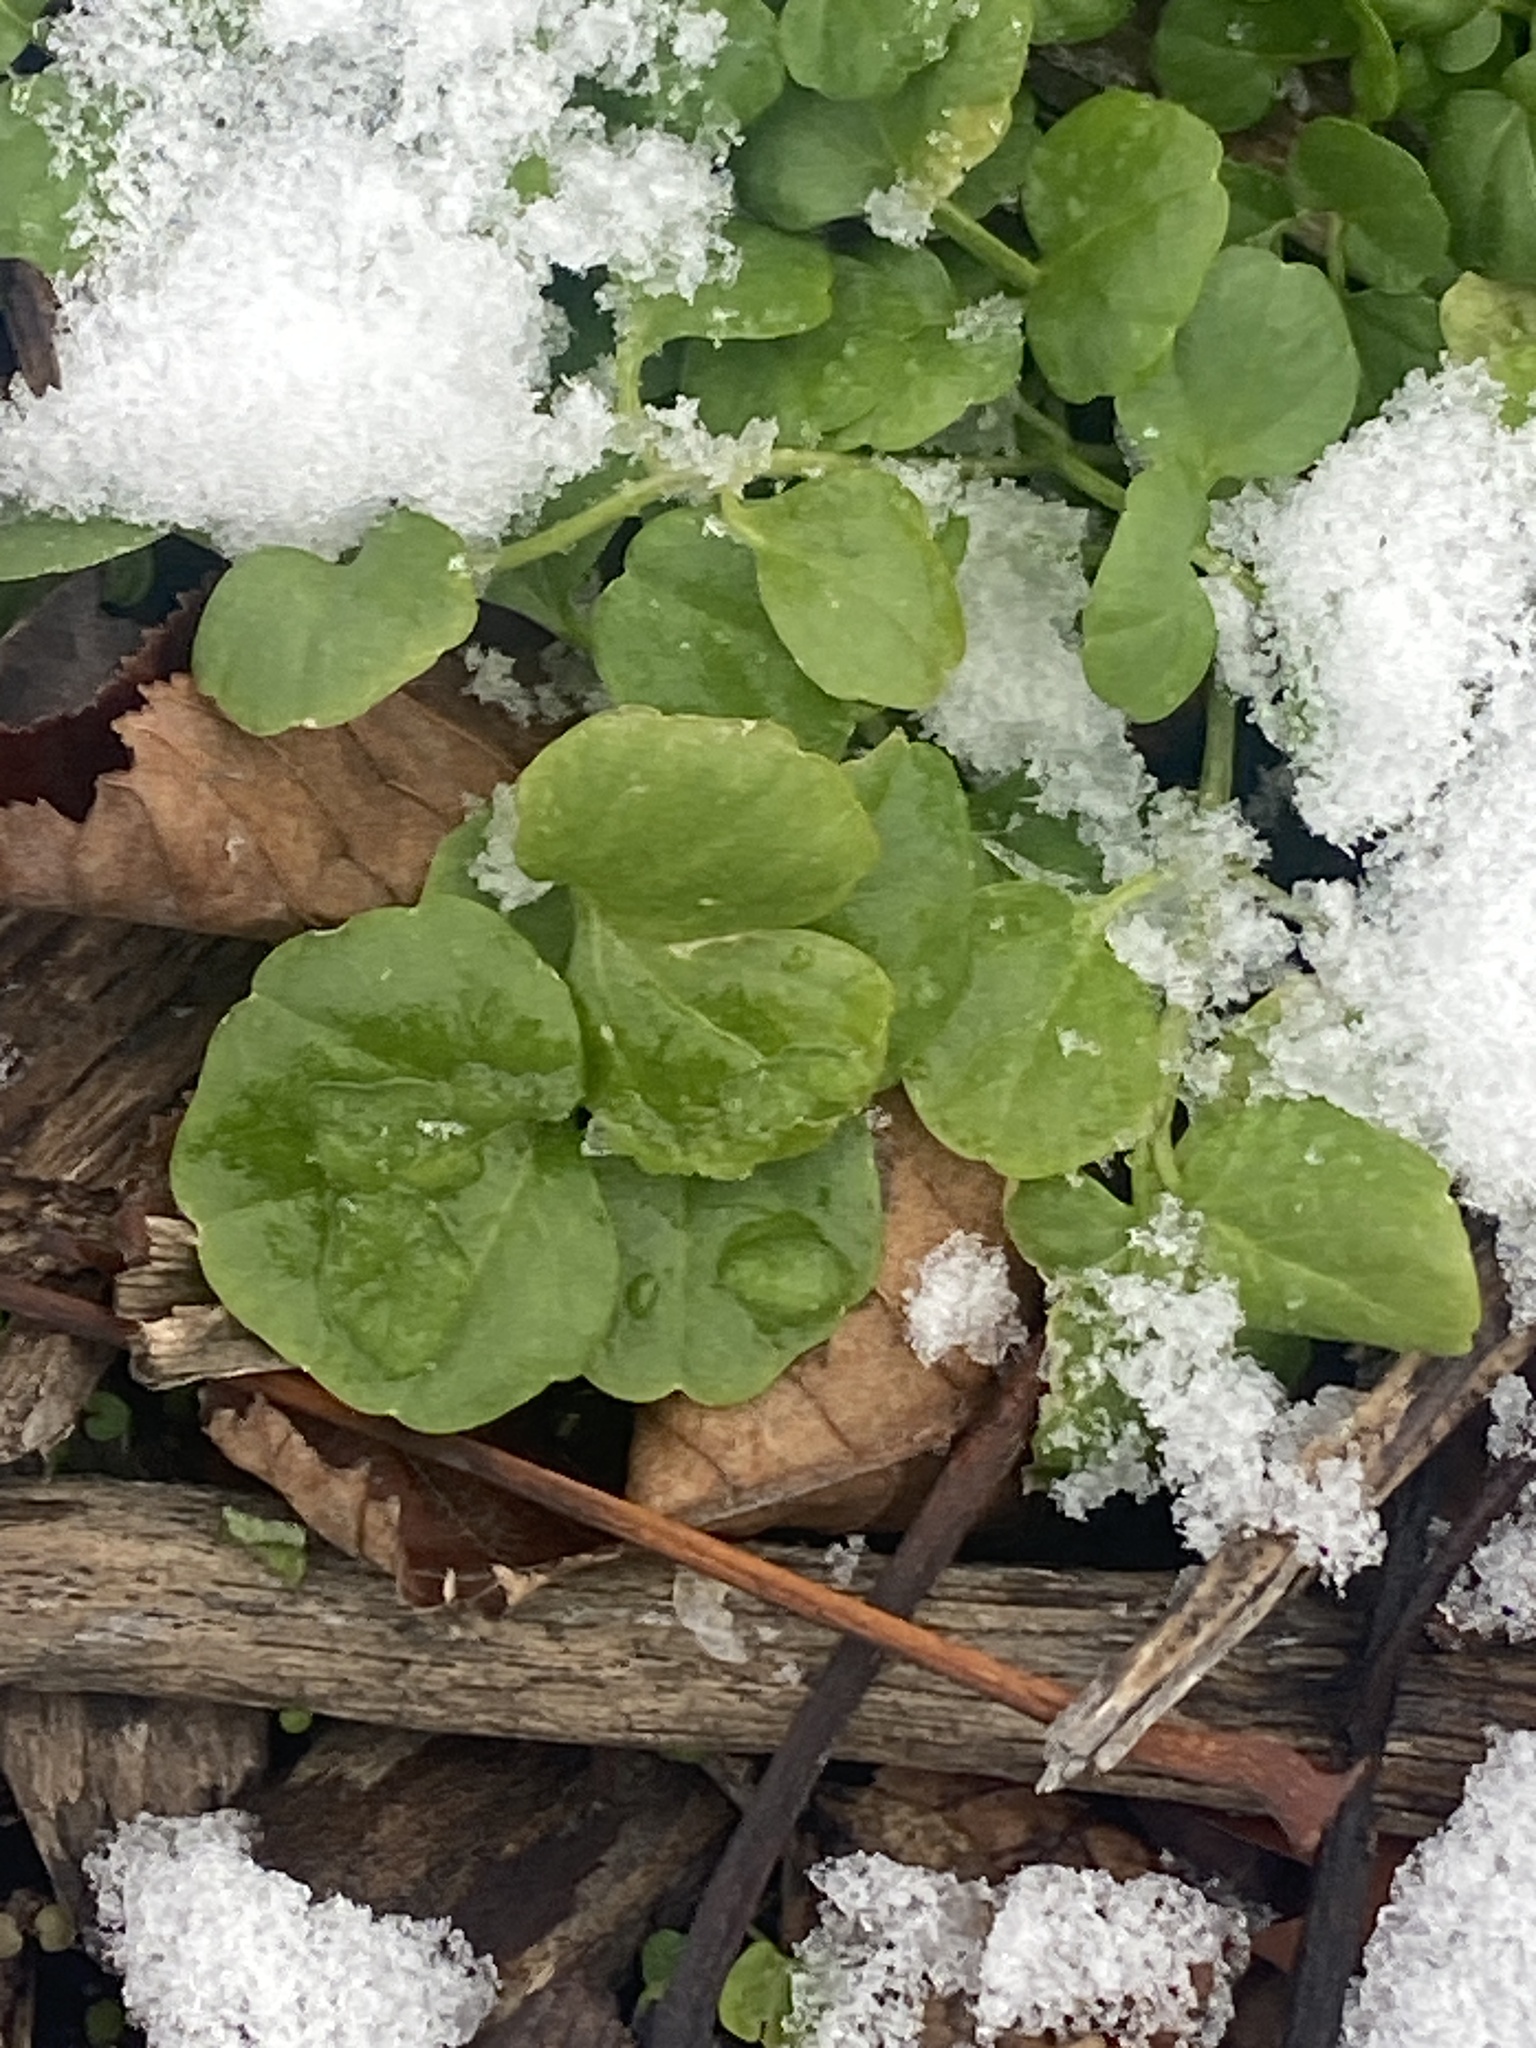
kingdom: Plantae
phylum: Tracheophyta
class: Magnoliopsida
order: Brassicales
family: Brassicaceae
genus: Cardamine
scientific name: Cardamine hirsuta
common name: Hairy bittercress
